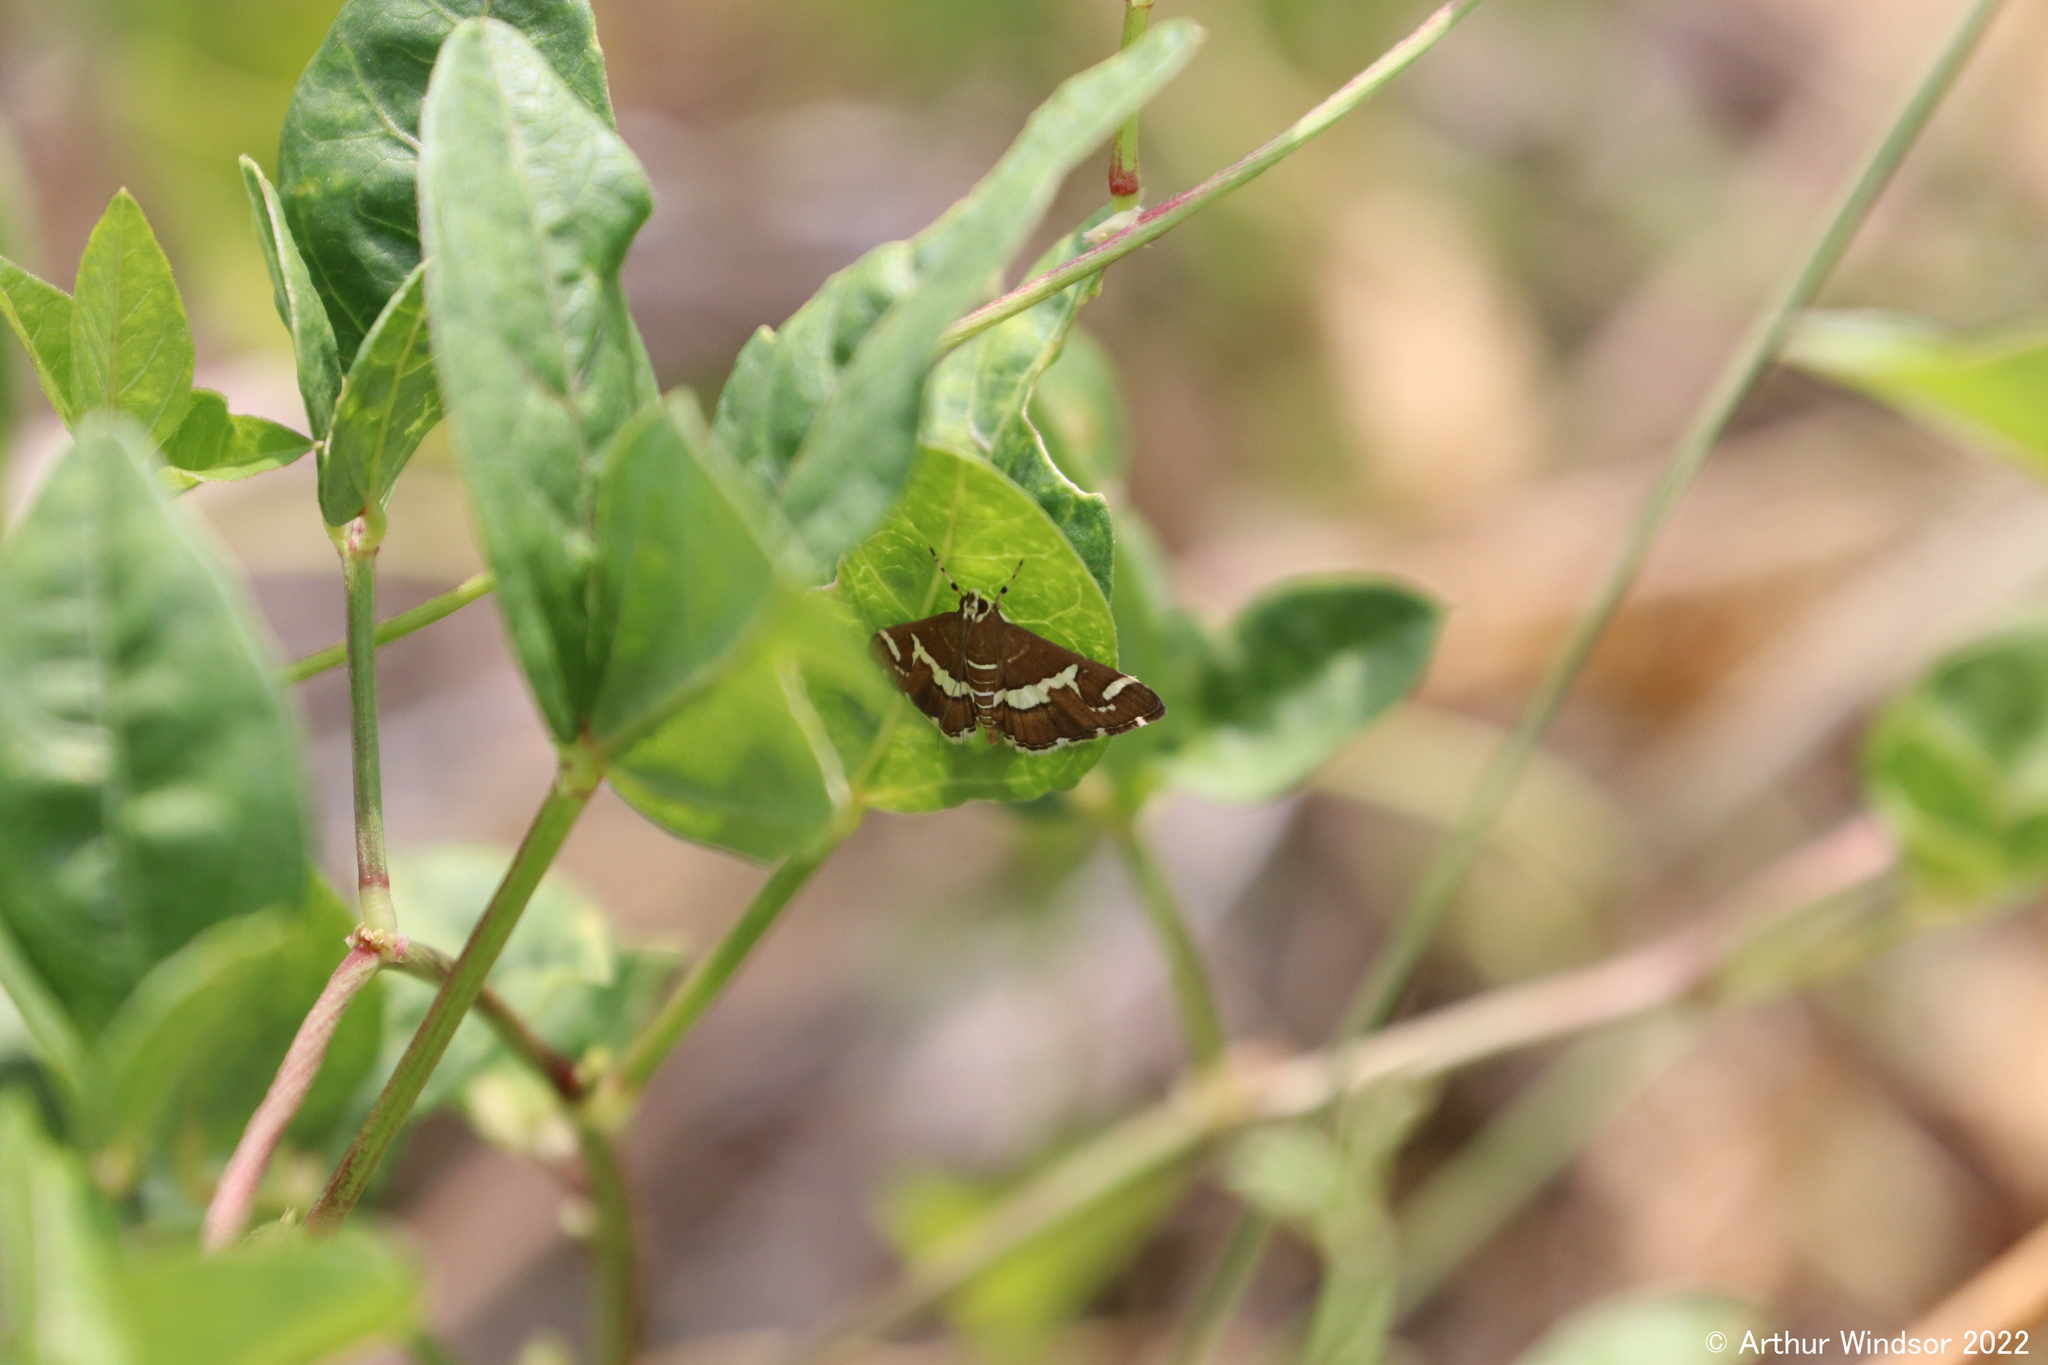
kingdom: Animalia
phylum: Arthropoda
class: Insecta
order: Lepidoptera
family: Crambidae
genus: Spoladea
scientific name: Spoladea recurvalis
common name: Beet webworm moth
